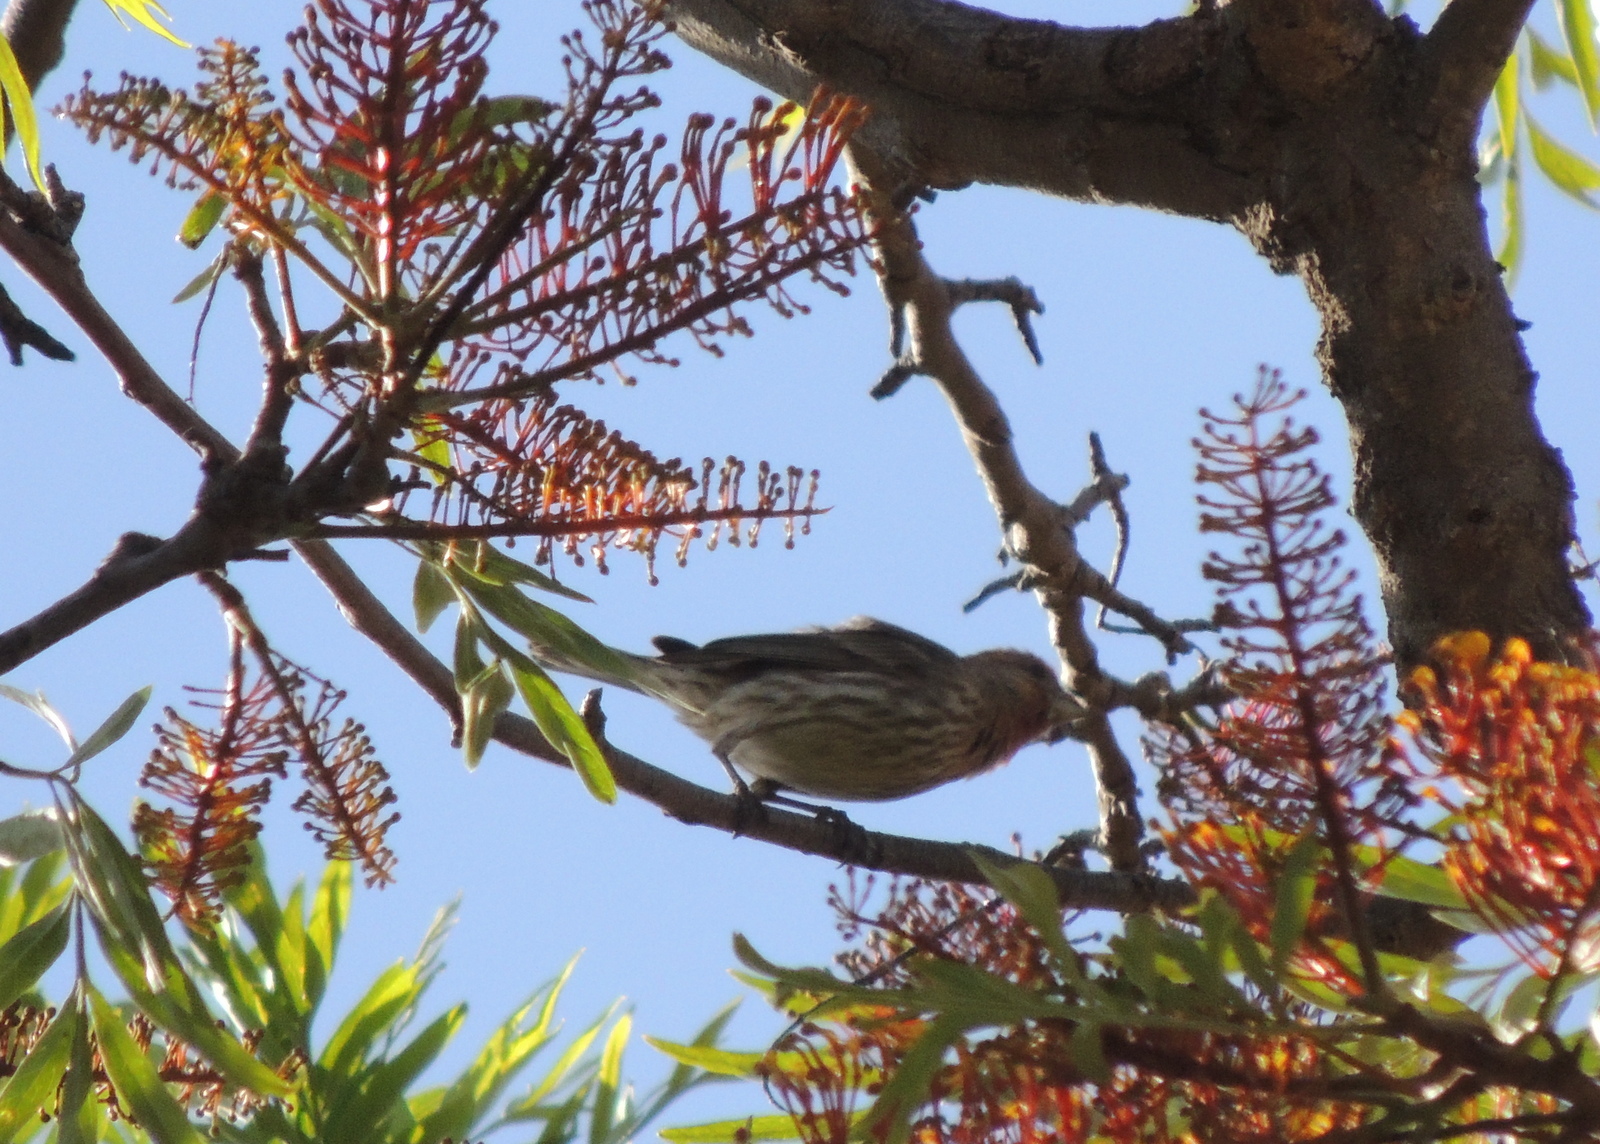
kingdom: Animalia
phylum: Chordata
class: Aves
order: Passeriformes
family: Fringillidae
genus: Haemorhous
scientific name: Haemorhous mexicanus
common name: House finch
